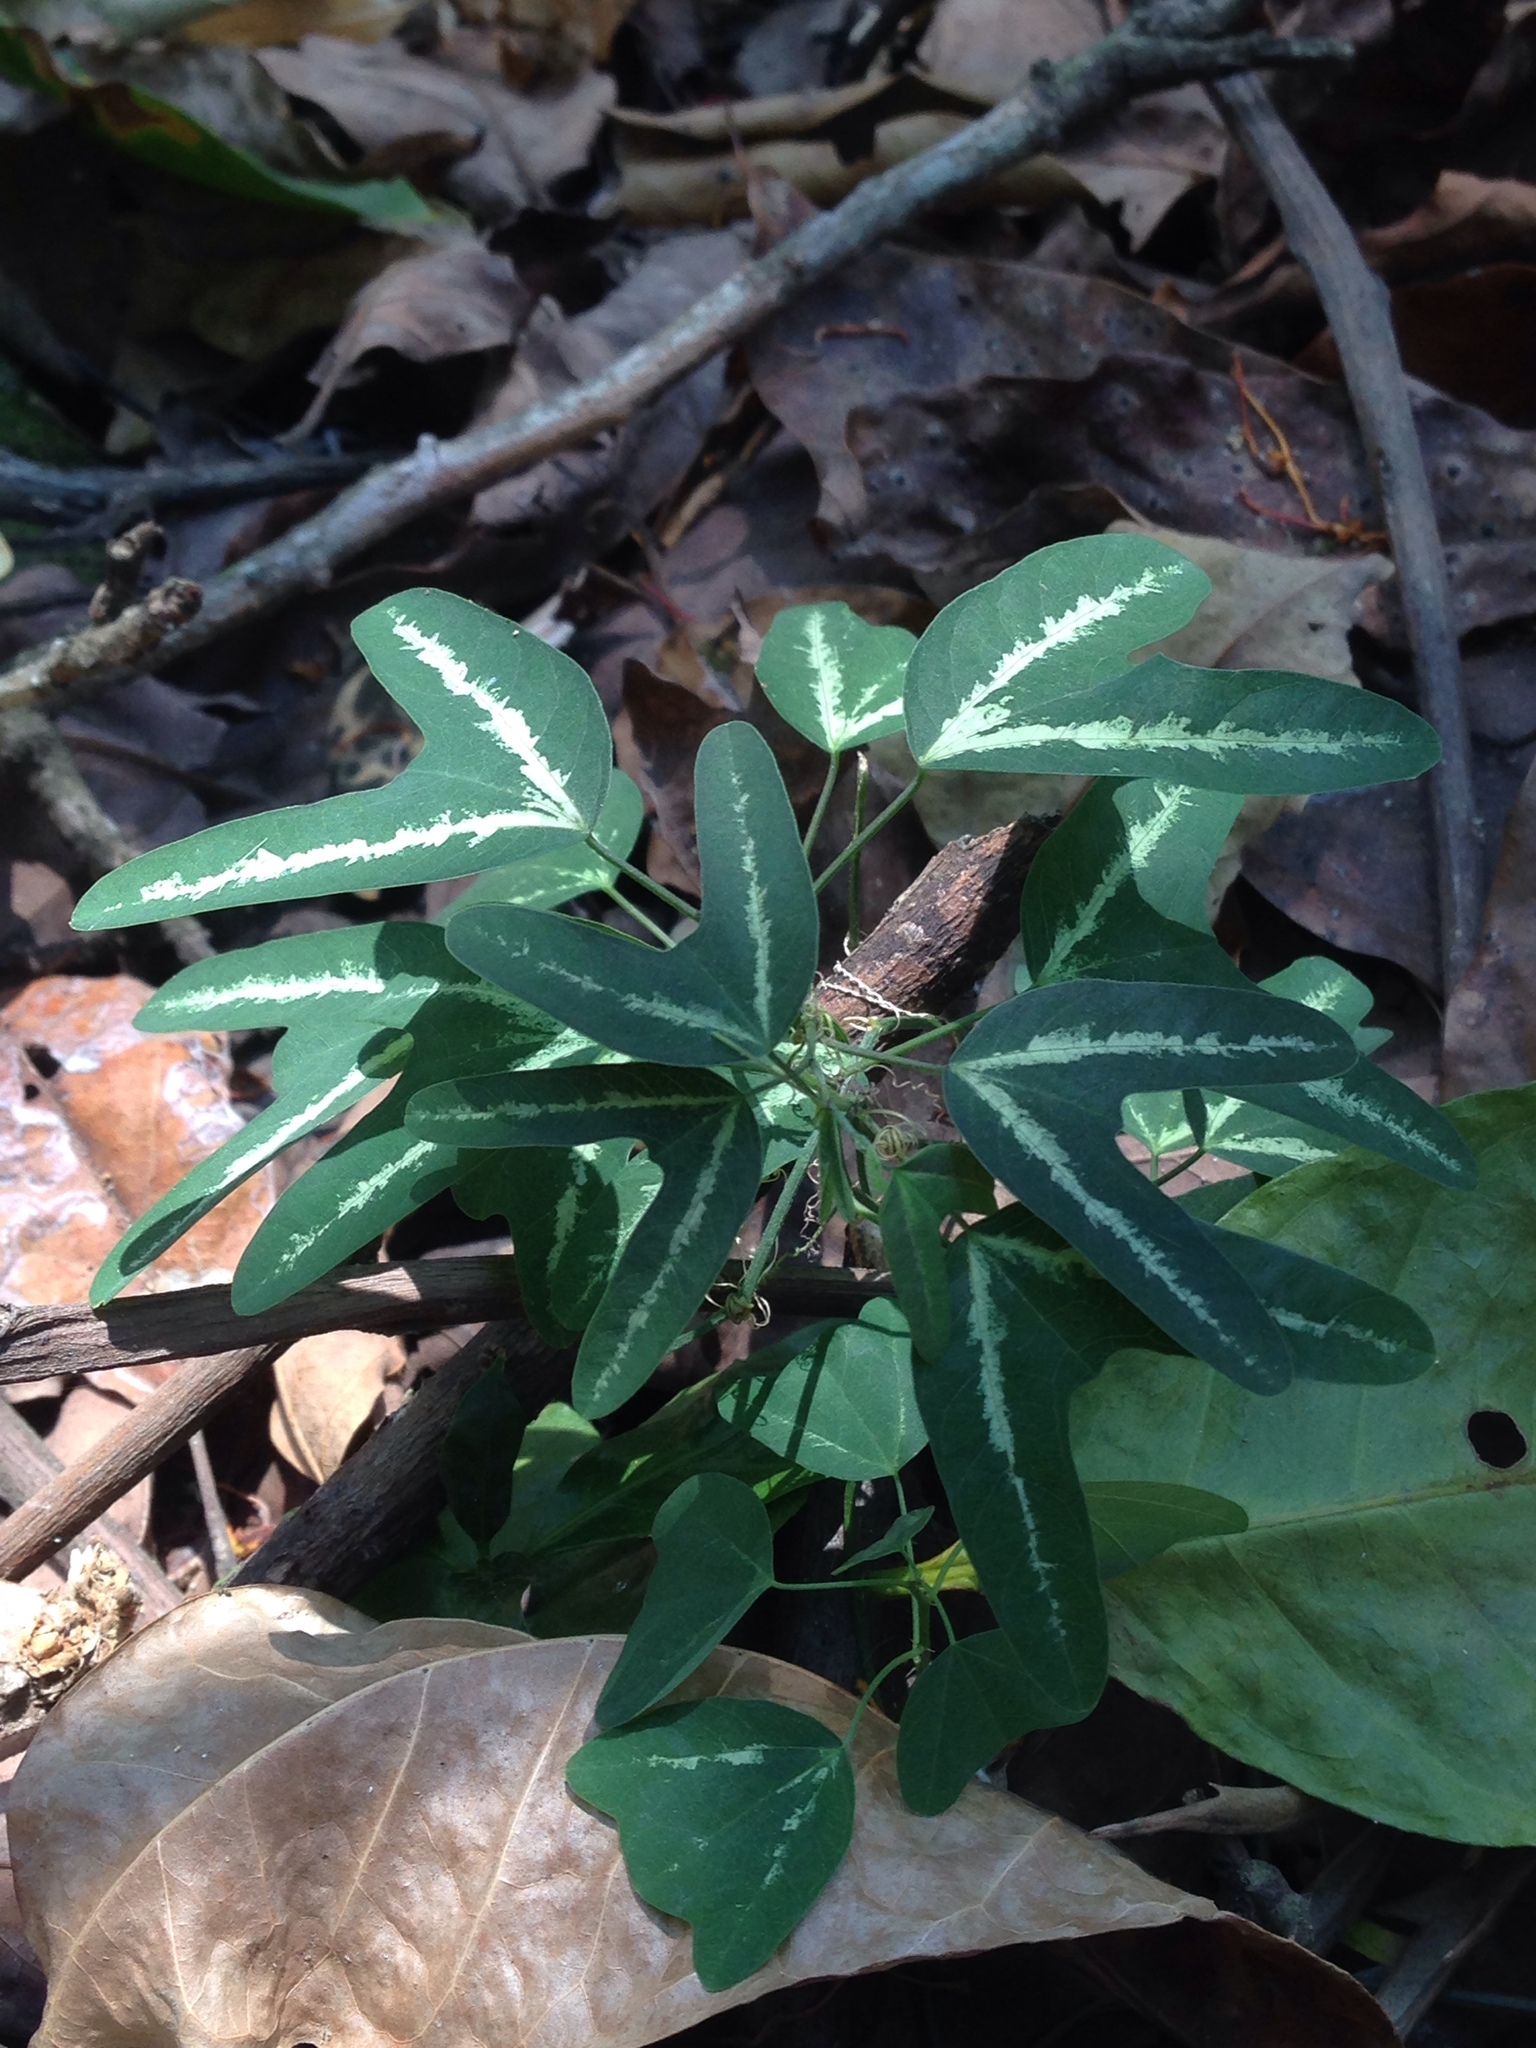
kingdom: Plantae
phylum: Tracheophyta
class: Magnoliopsida
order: Malpighiales
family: Passifloraceae
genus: Passiflora
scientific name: Passiflora ornithoura
